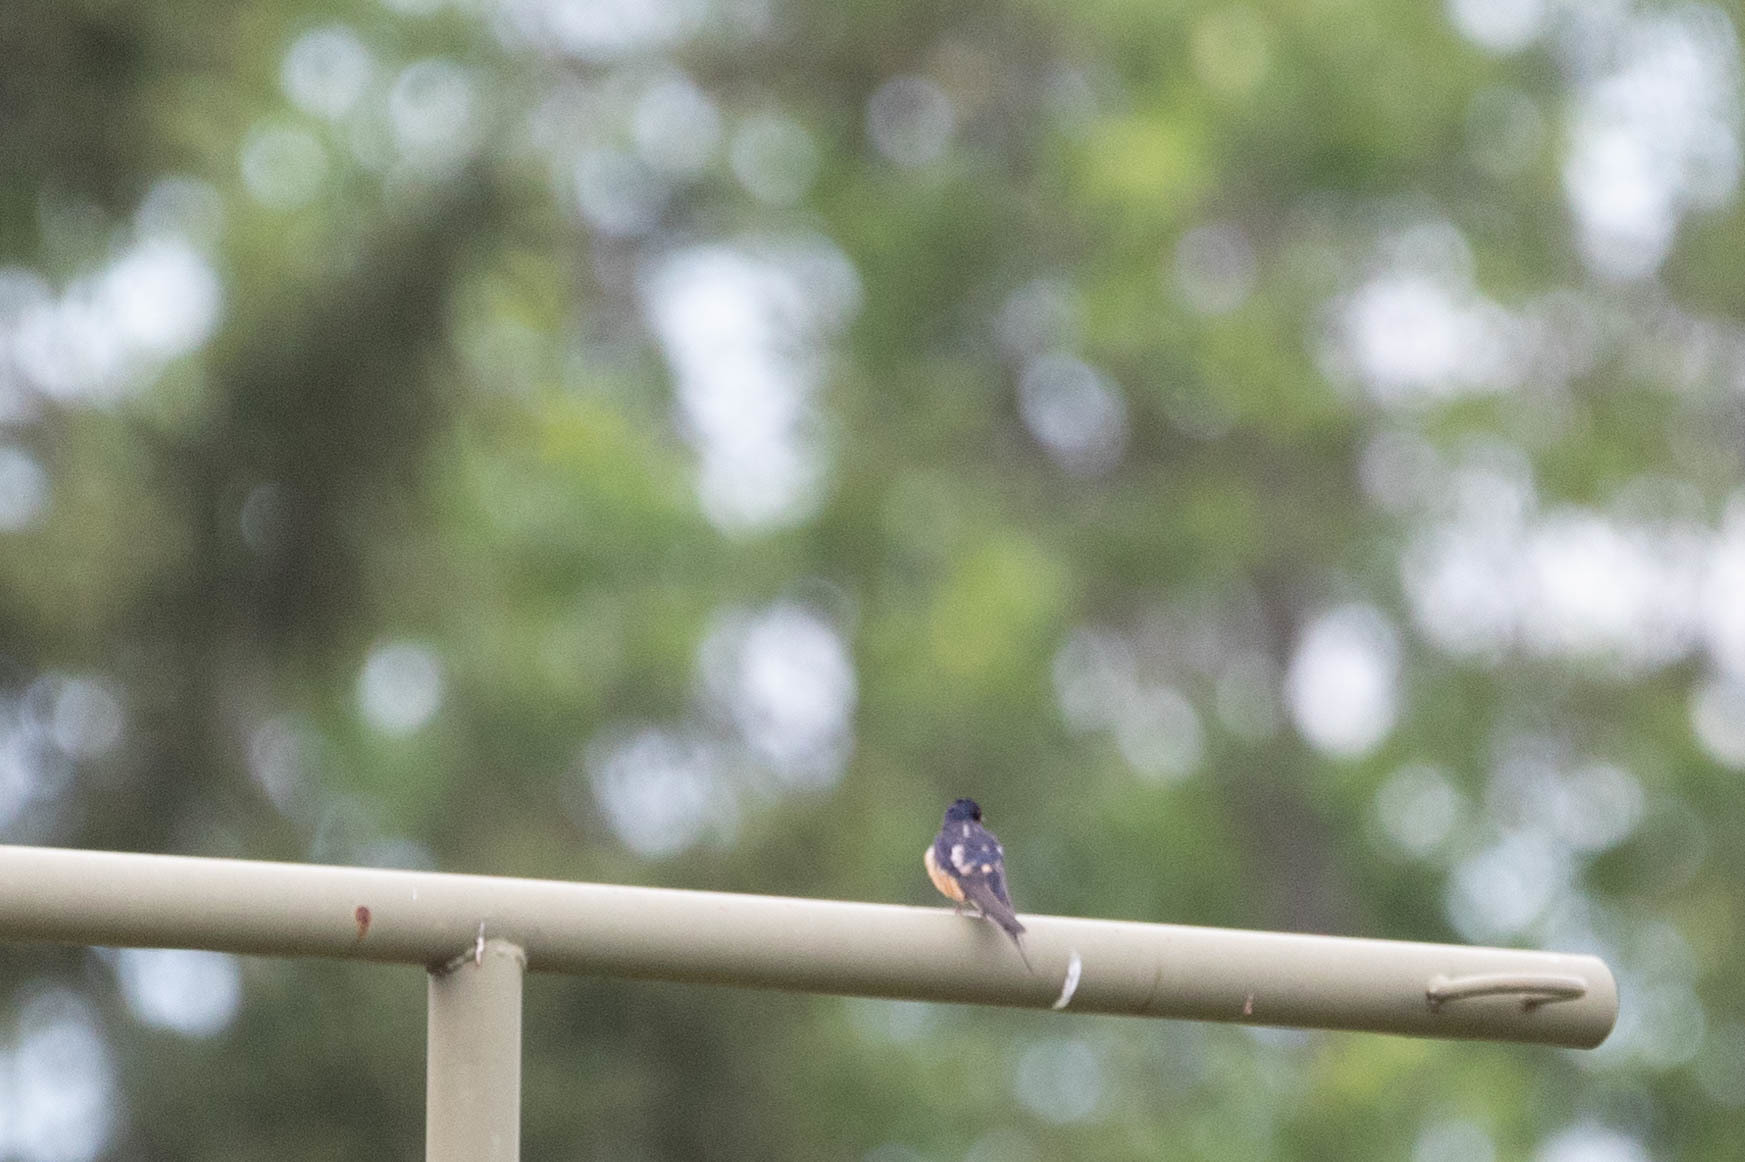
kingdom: Animalia
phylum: Chordata
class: Aves
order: Passeriformes
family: Hirundinidae
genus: Hirundo
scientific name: Hirundo rustica
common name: Barn swallow
